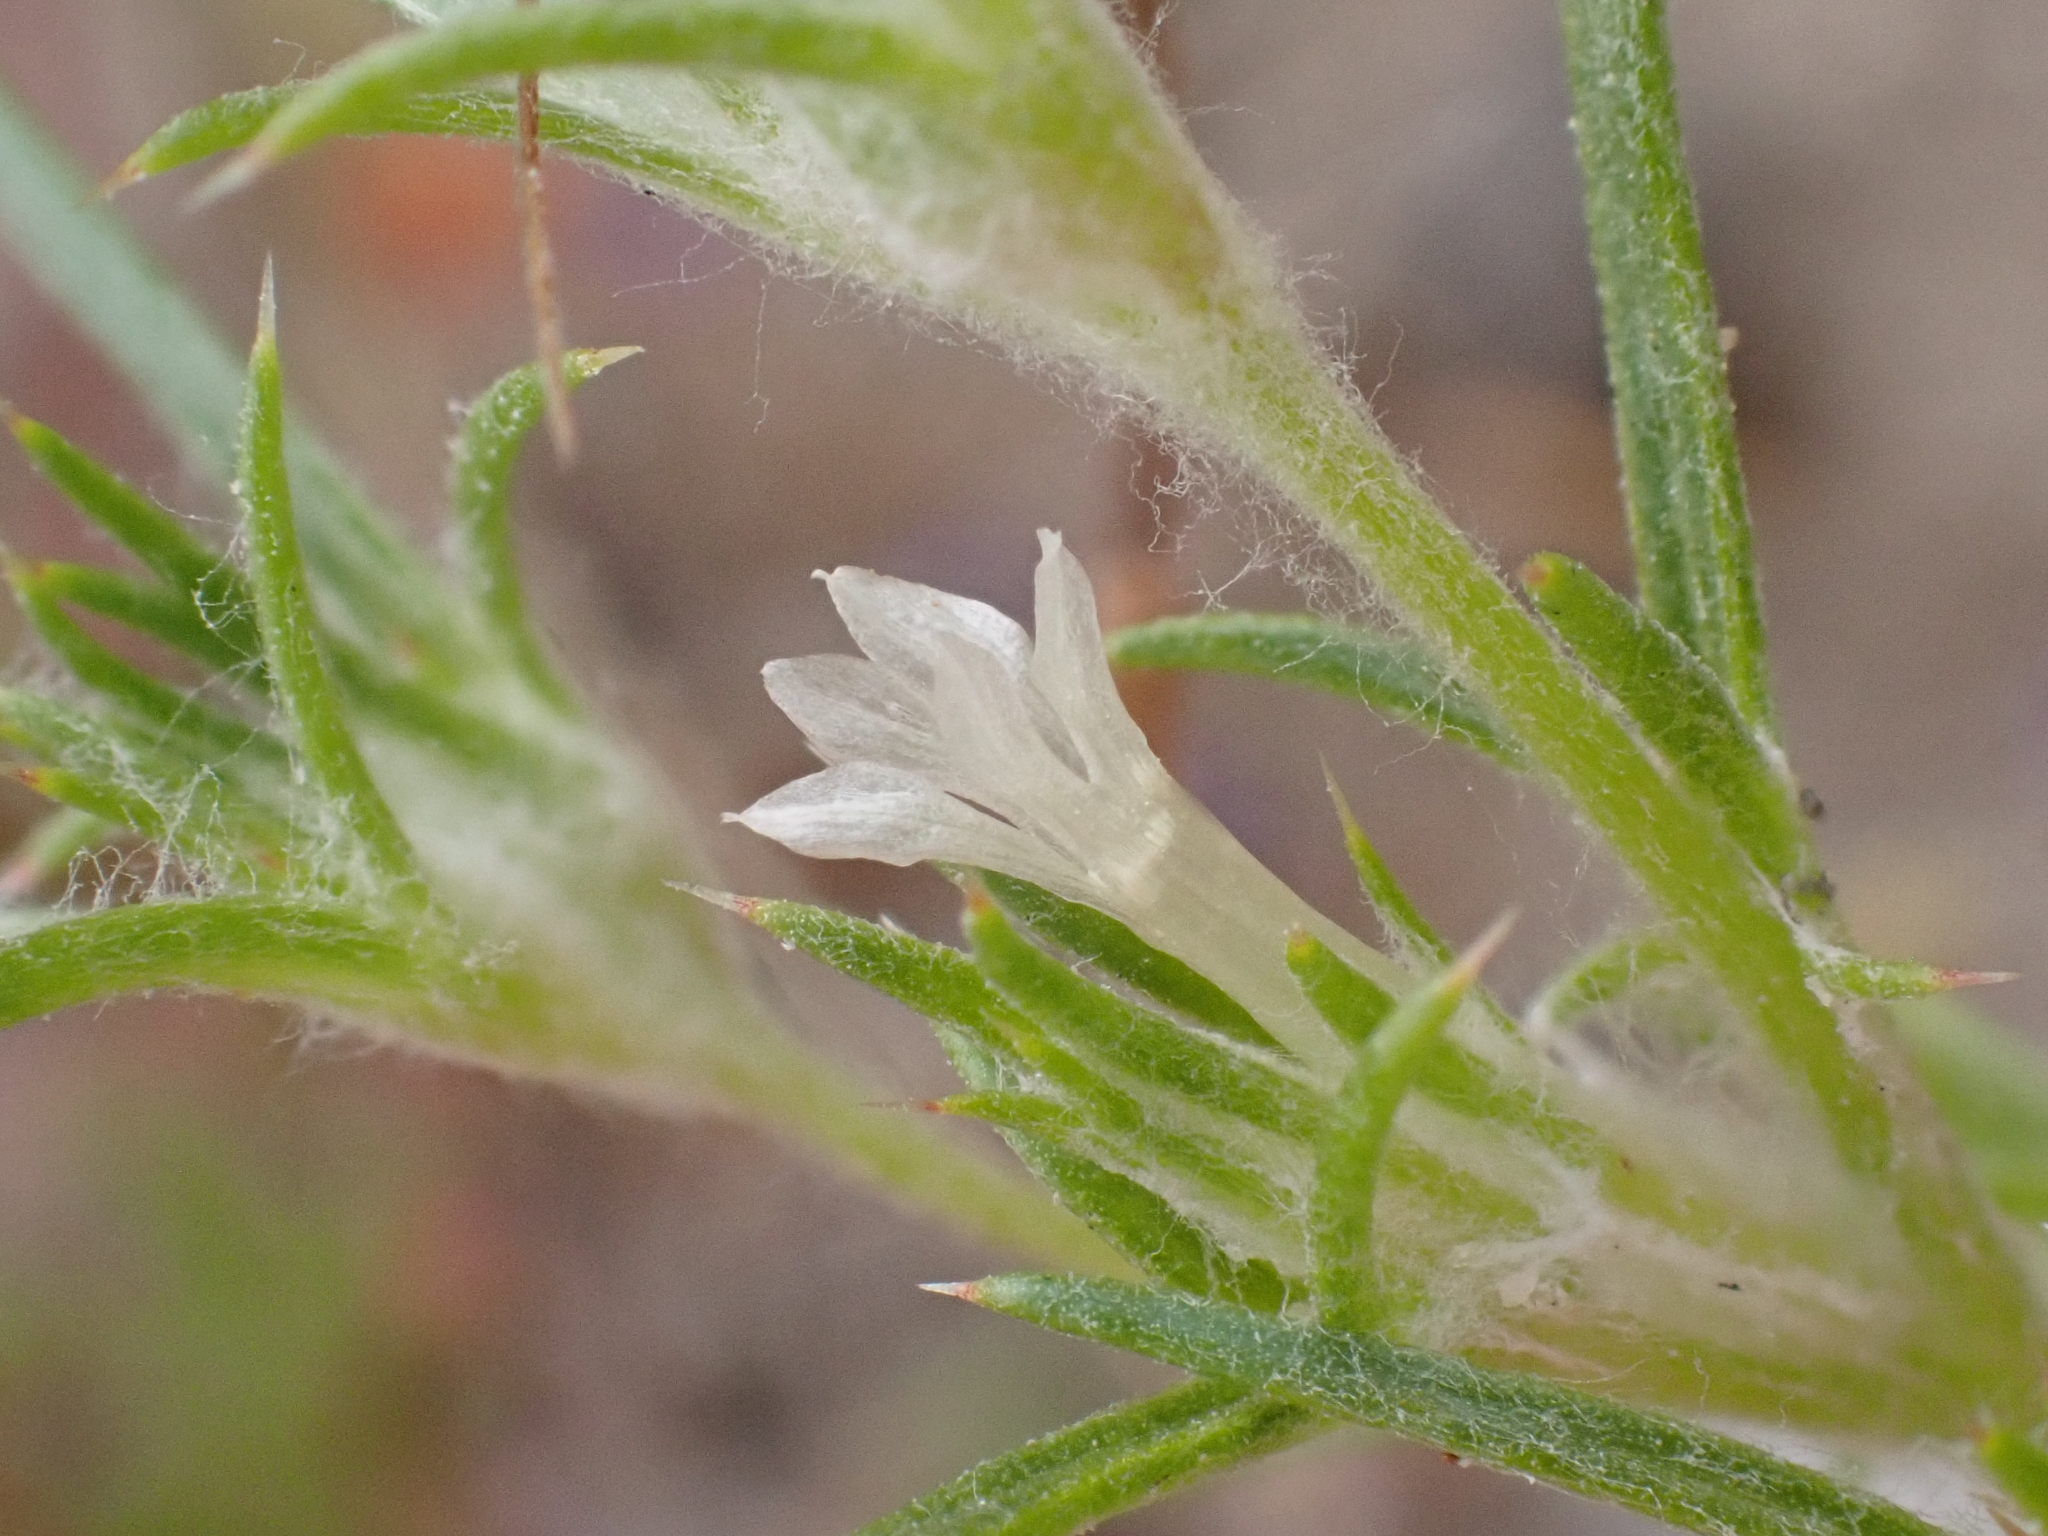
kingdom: Plantae
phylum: Tracheophyta
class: Magnoliopsida
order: Ericales
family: Polemoniaceae
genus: Eriastrum
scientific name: Eriastrum hooveri
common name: Hoover's woolly-star
